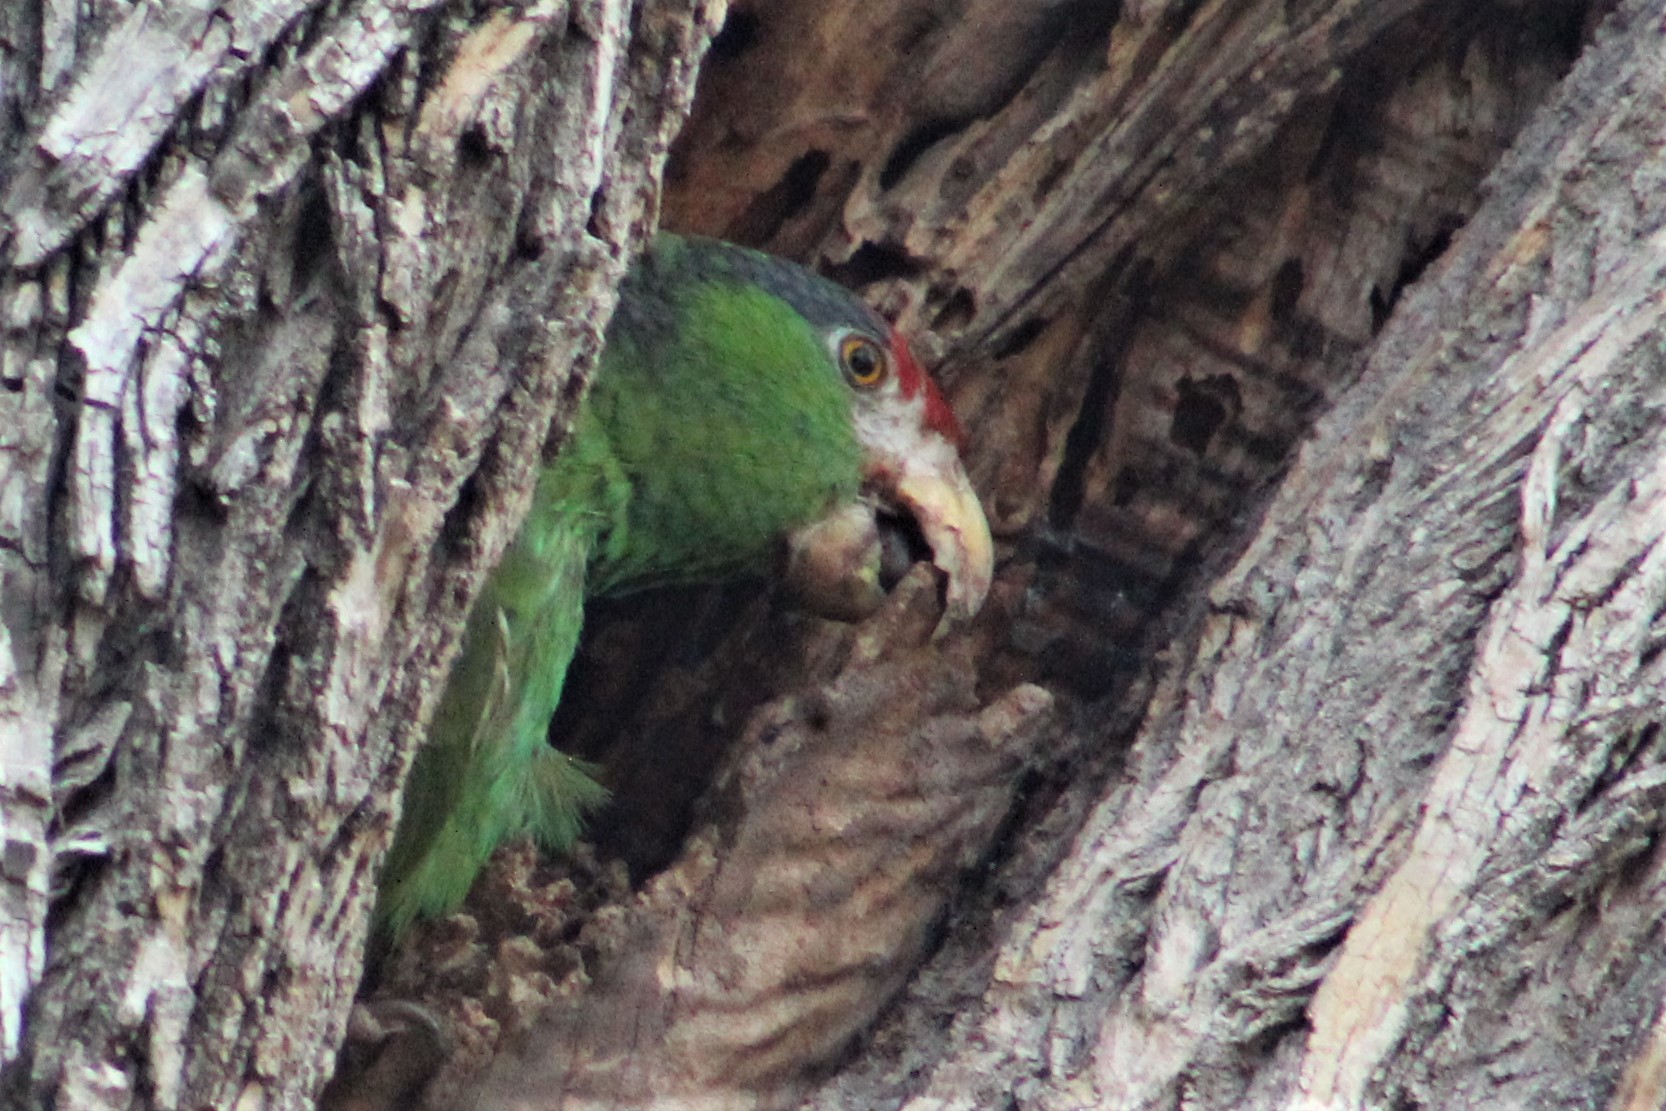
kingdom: Animalia
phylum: Chordata
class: Aves
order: Psittaciformes
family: Psittacidae
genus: Amazona
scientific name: Amazona viridigenalis
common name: Red-crowned amazon
